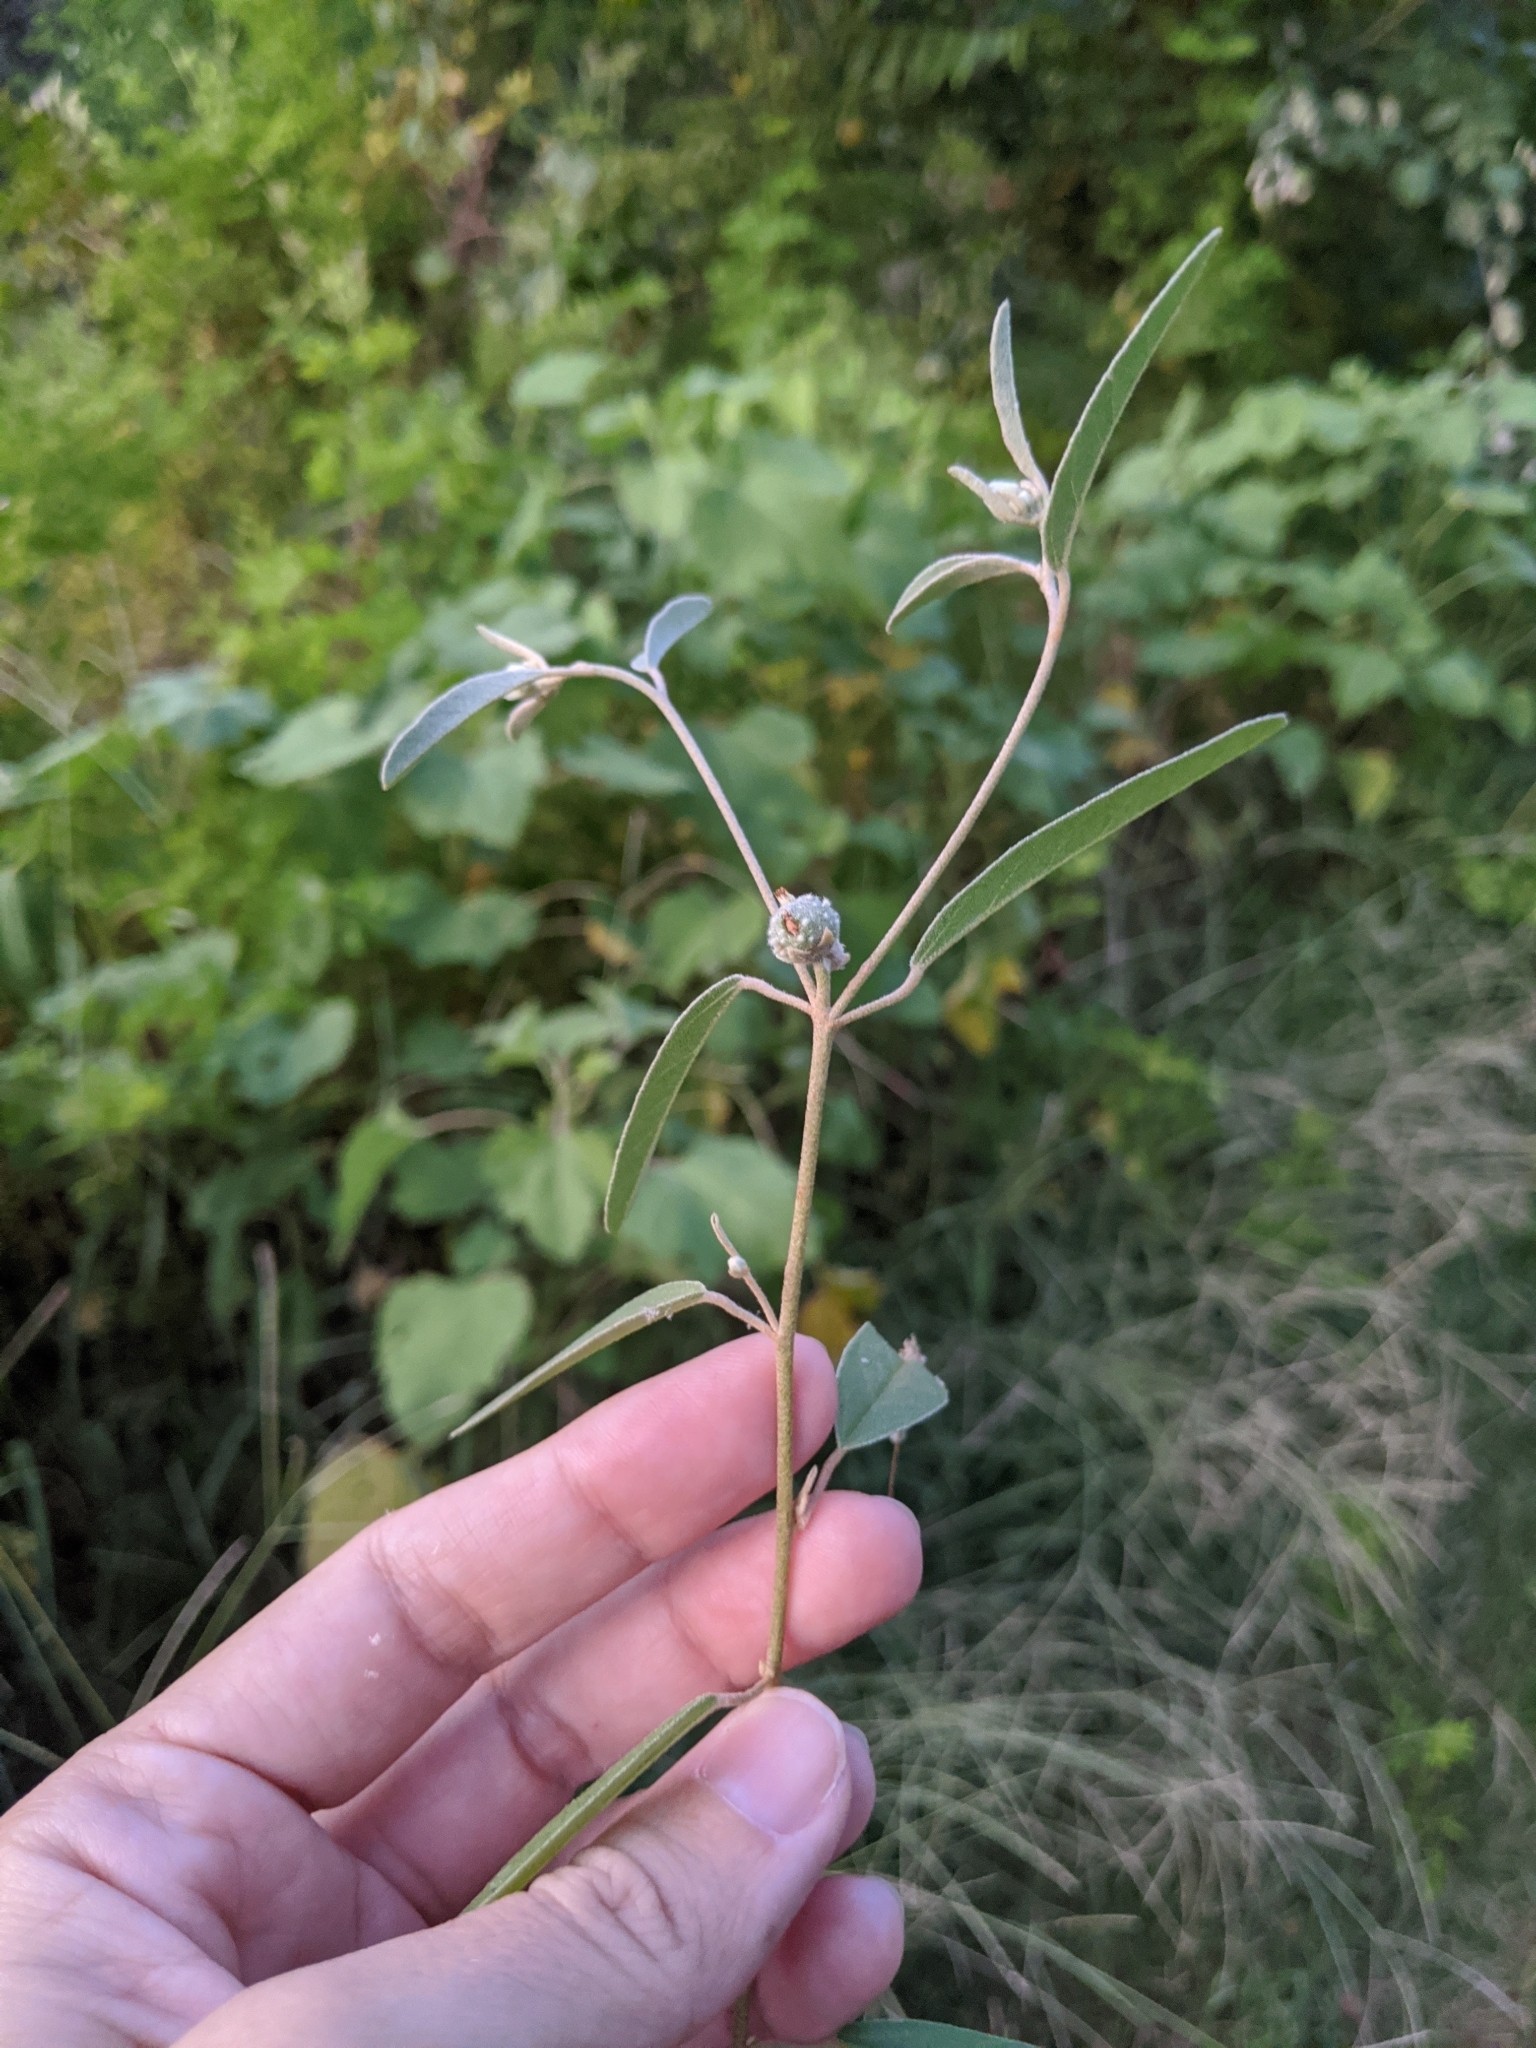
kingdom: Plantae
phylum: Tracheophyta
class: Magnoliopsida
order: Malpighiales
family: Euphorbiaceae
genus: Croton
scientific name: Croton texensis
